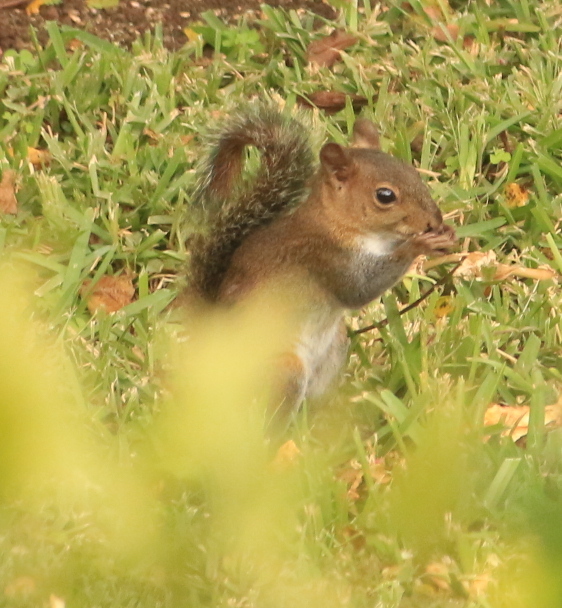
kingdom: Animalia
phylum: Chordata
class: Mammalia
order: Rodentia
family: Sciuridae
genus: Sciurus
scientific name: Sciurus deppei
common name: Deppe's squirrel
